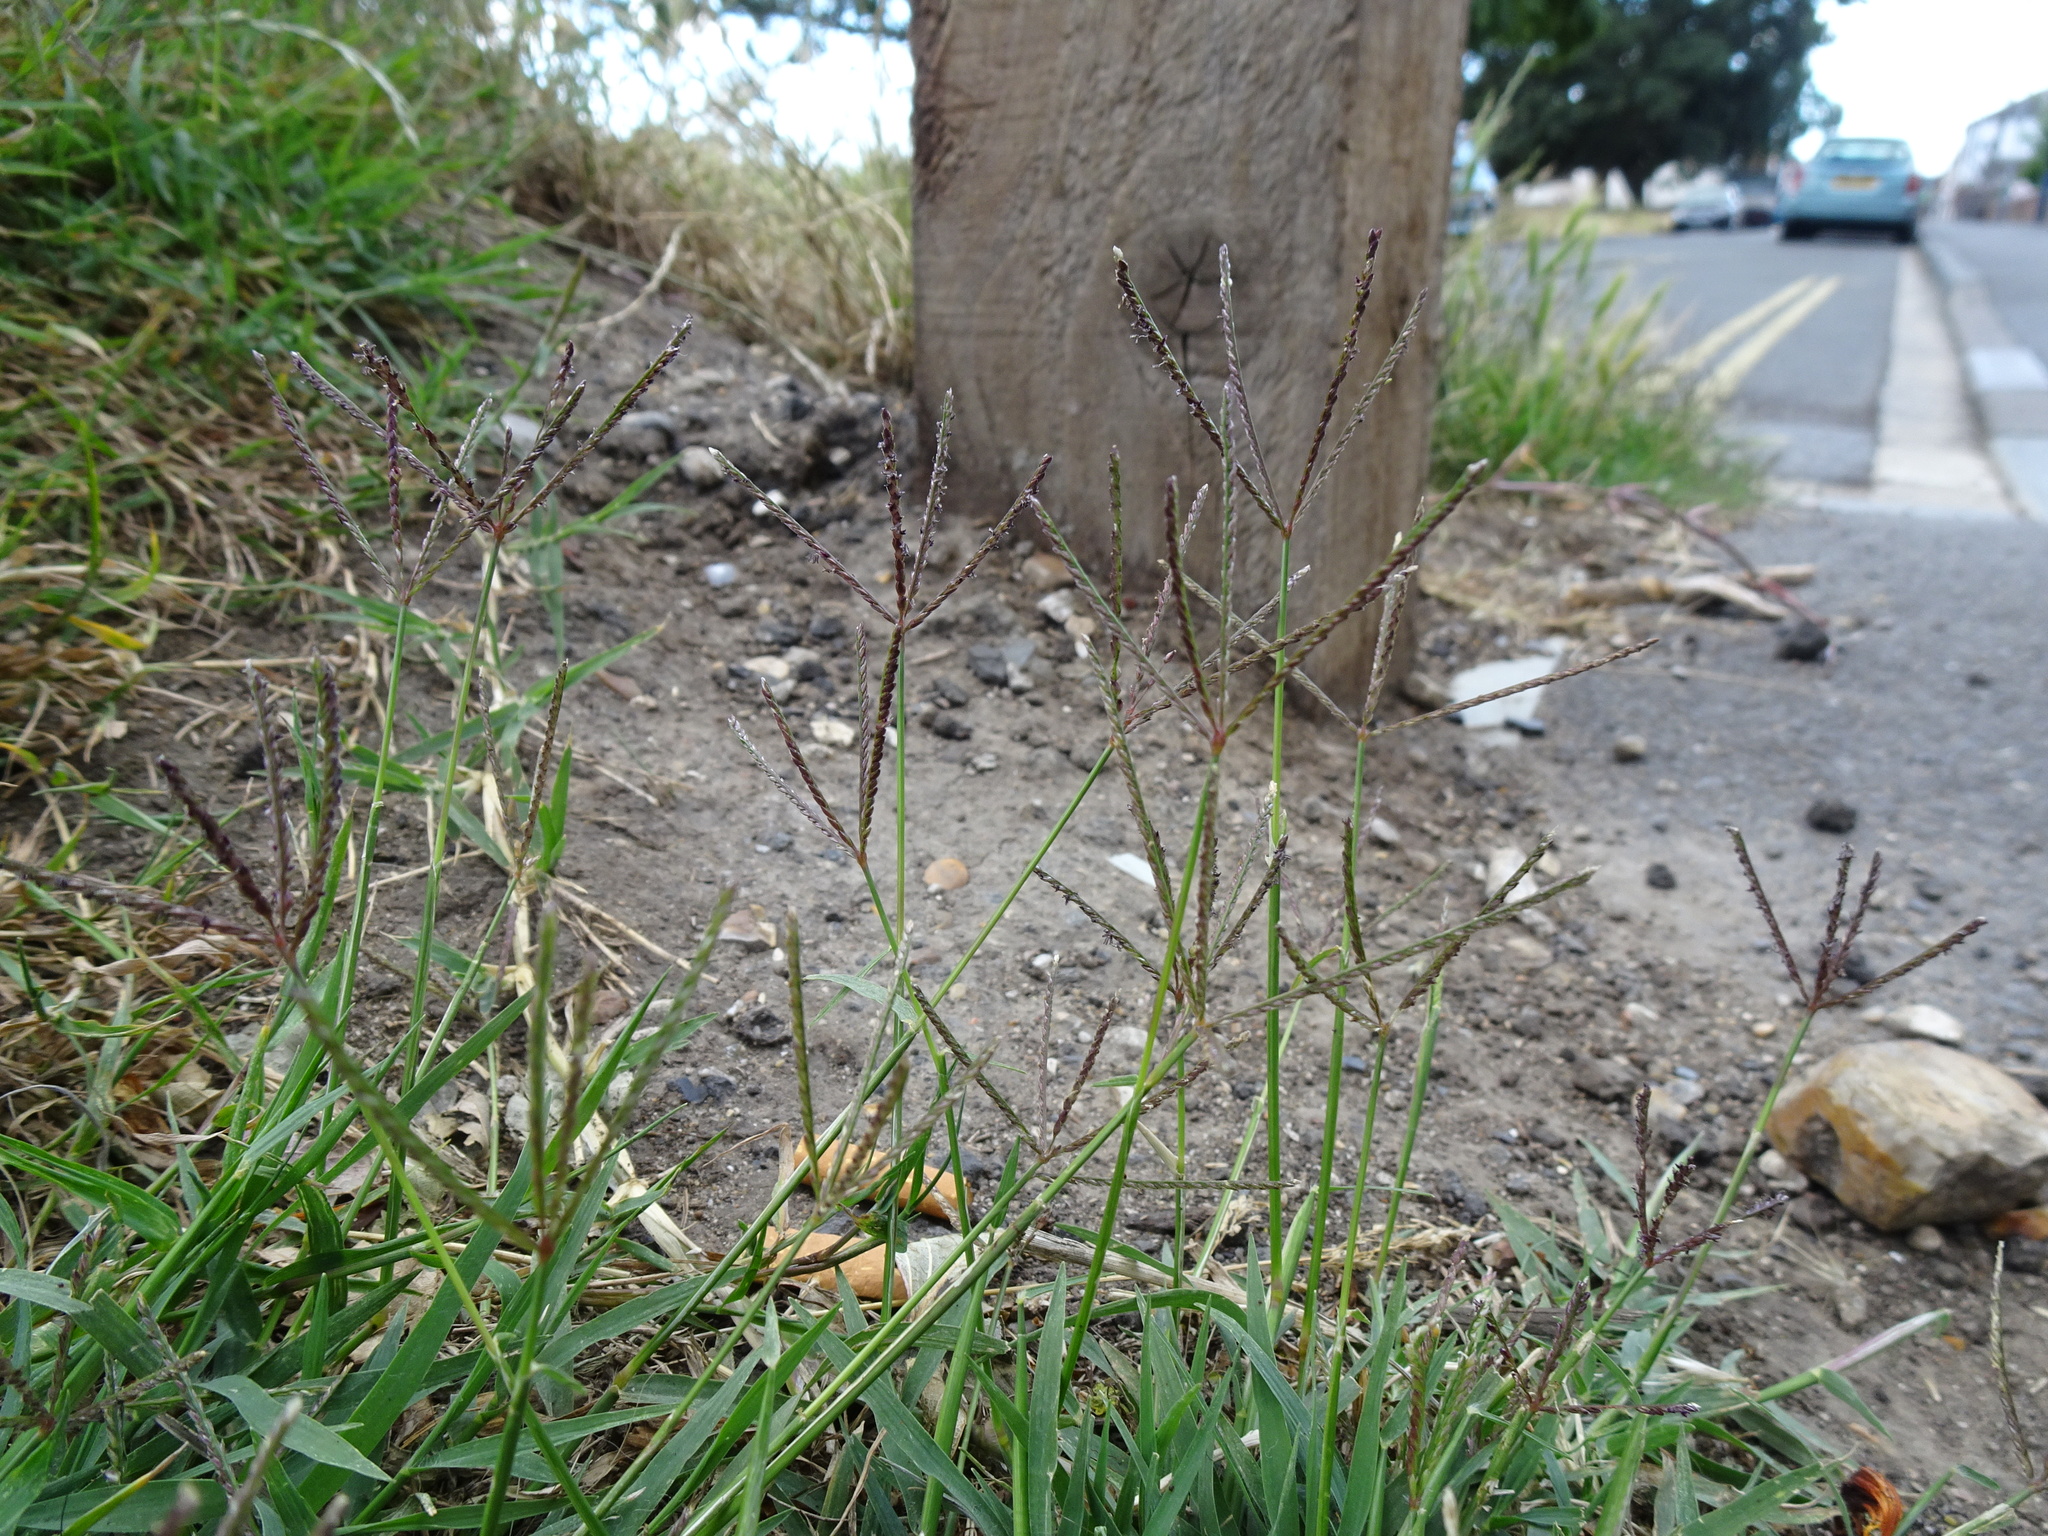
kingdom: Plantae
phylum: Tracheophyta
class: Liliopsida
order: Poales
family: Poaceae
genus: Cynodon
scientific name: Cynodon dactylon
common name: Bermuda grass
